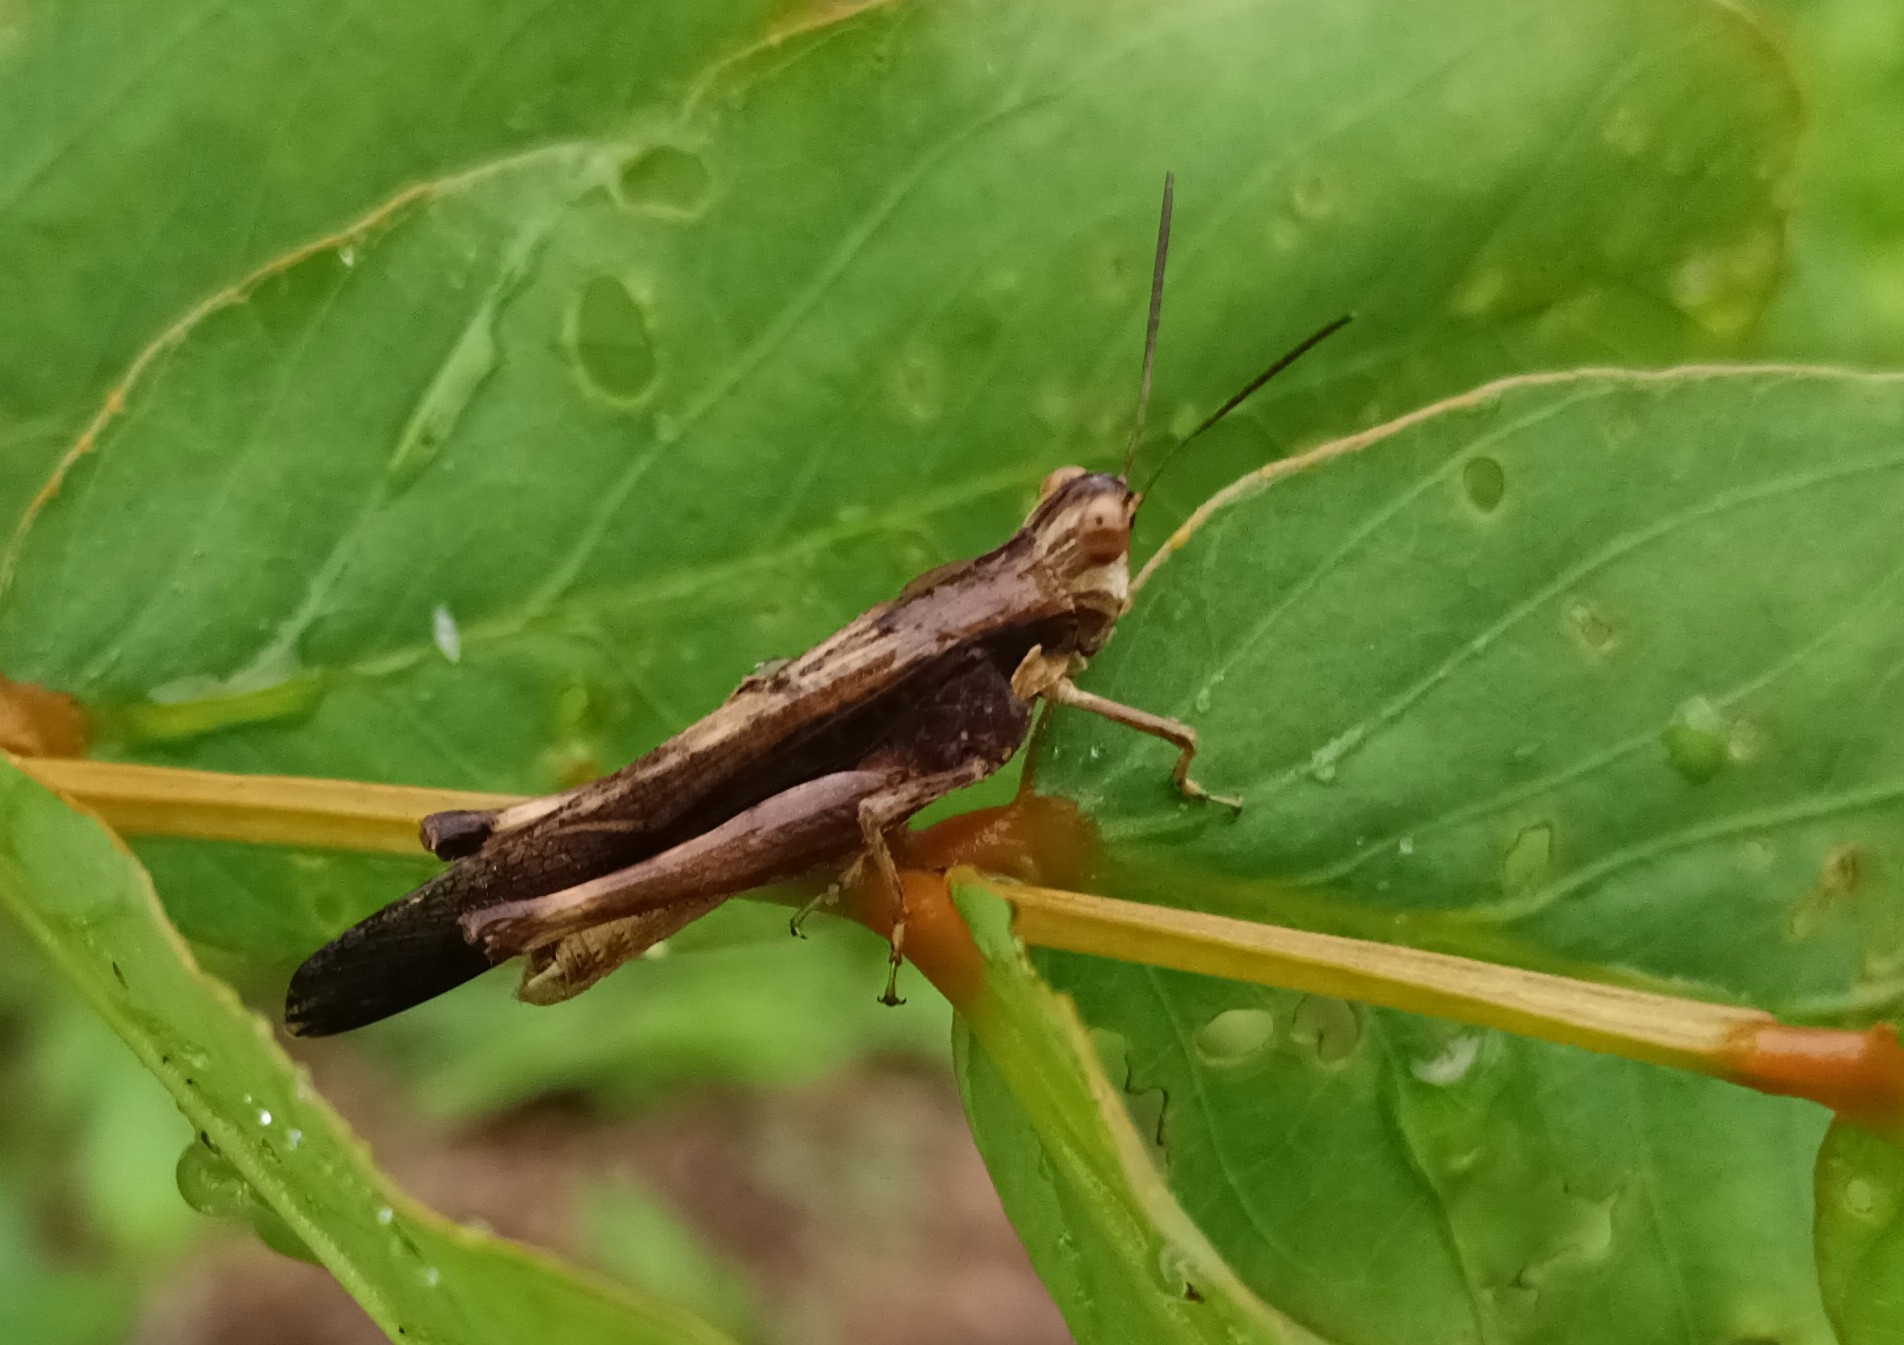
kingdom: Animalia
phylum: Arthropoda
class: Insecta
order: Orthoptera
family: Acrididae
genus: Morphacris
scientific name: Morphacris fasciata
